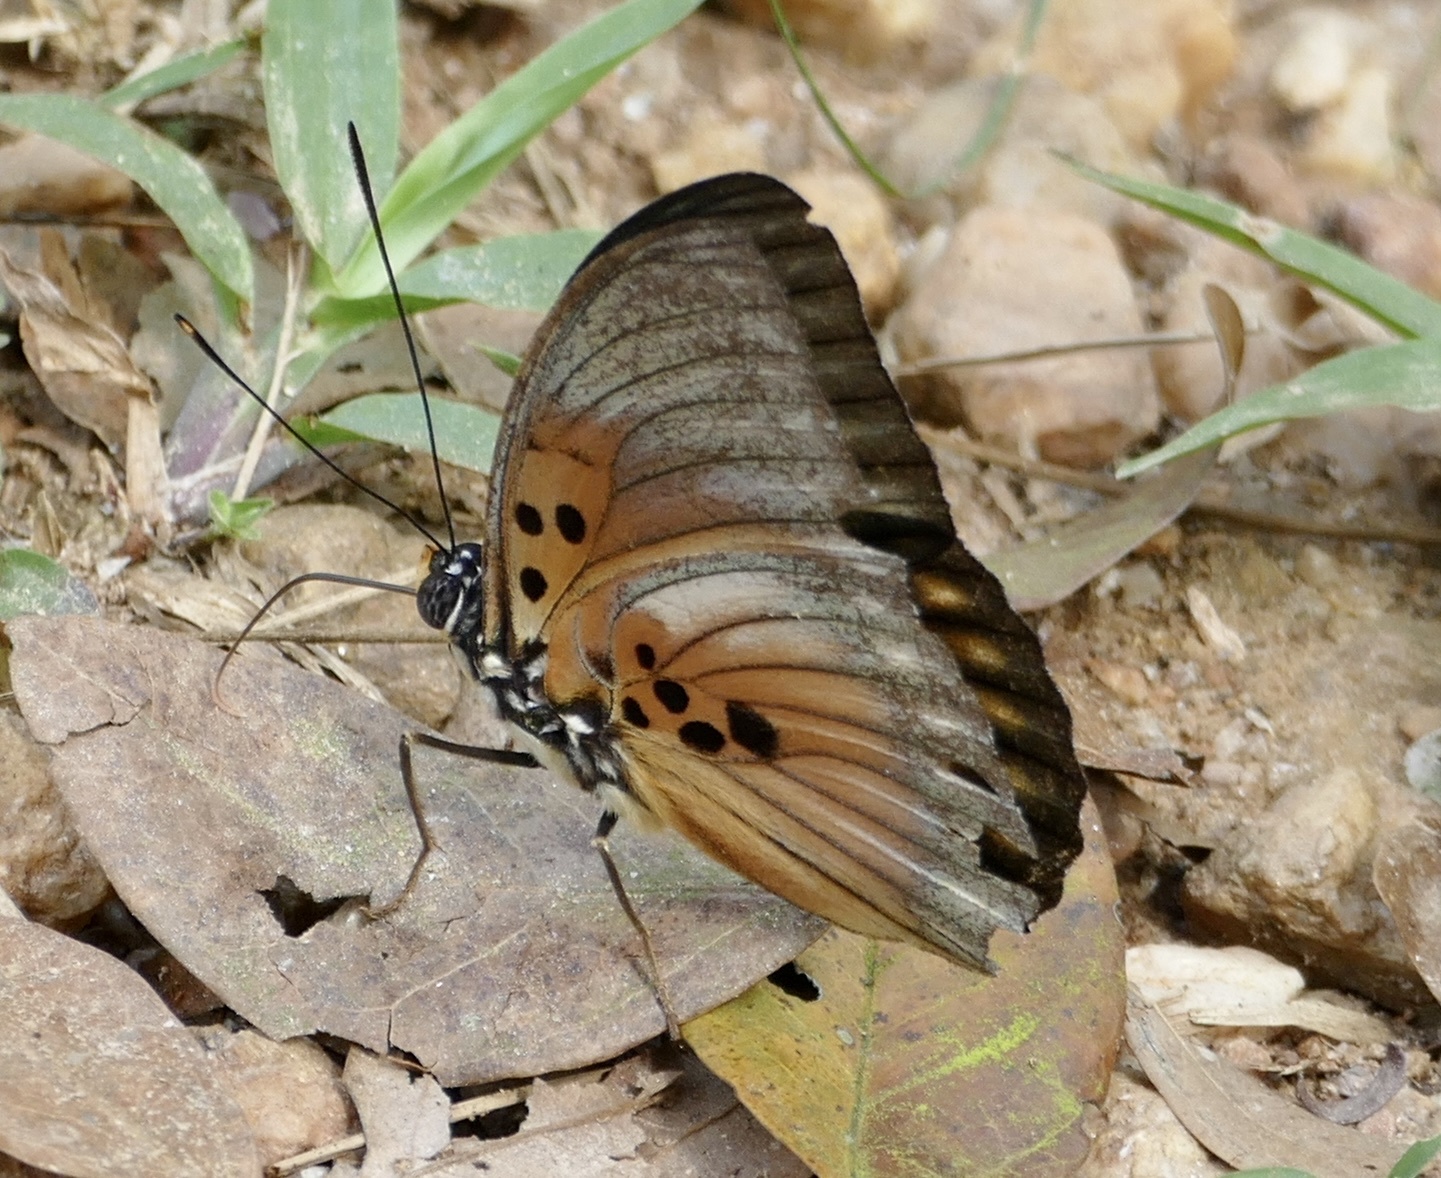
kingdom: Animalia
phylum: Arthropoda
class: Insecta
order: Lepidoptera
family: Nymphalidae
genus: Euphaedra
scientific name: Euphaedra edwardsii
